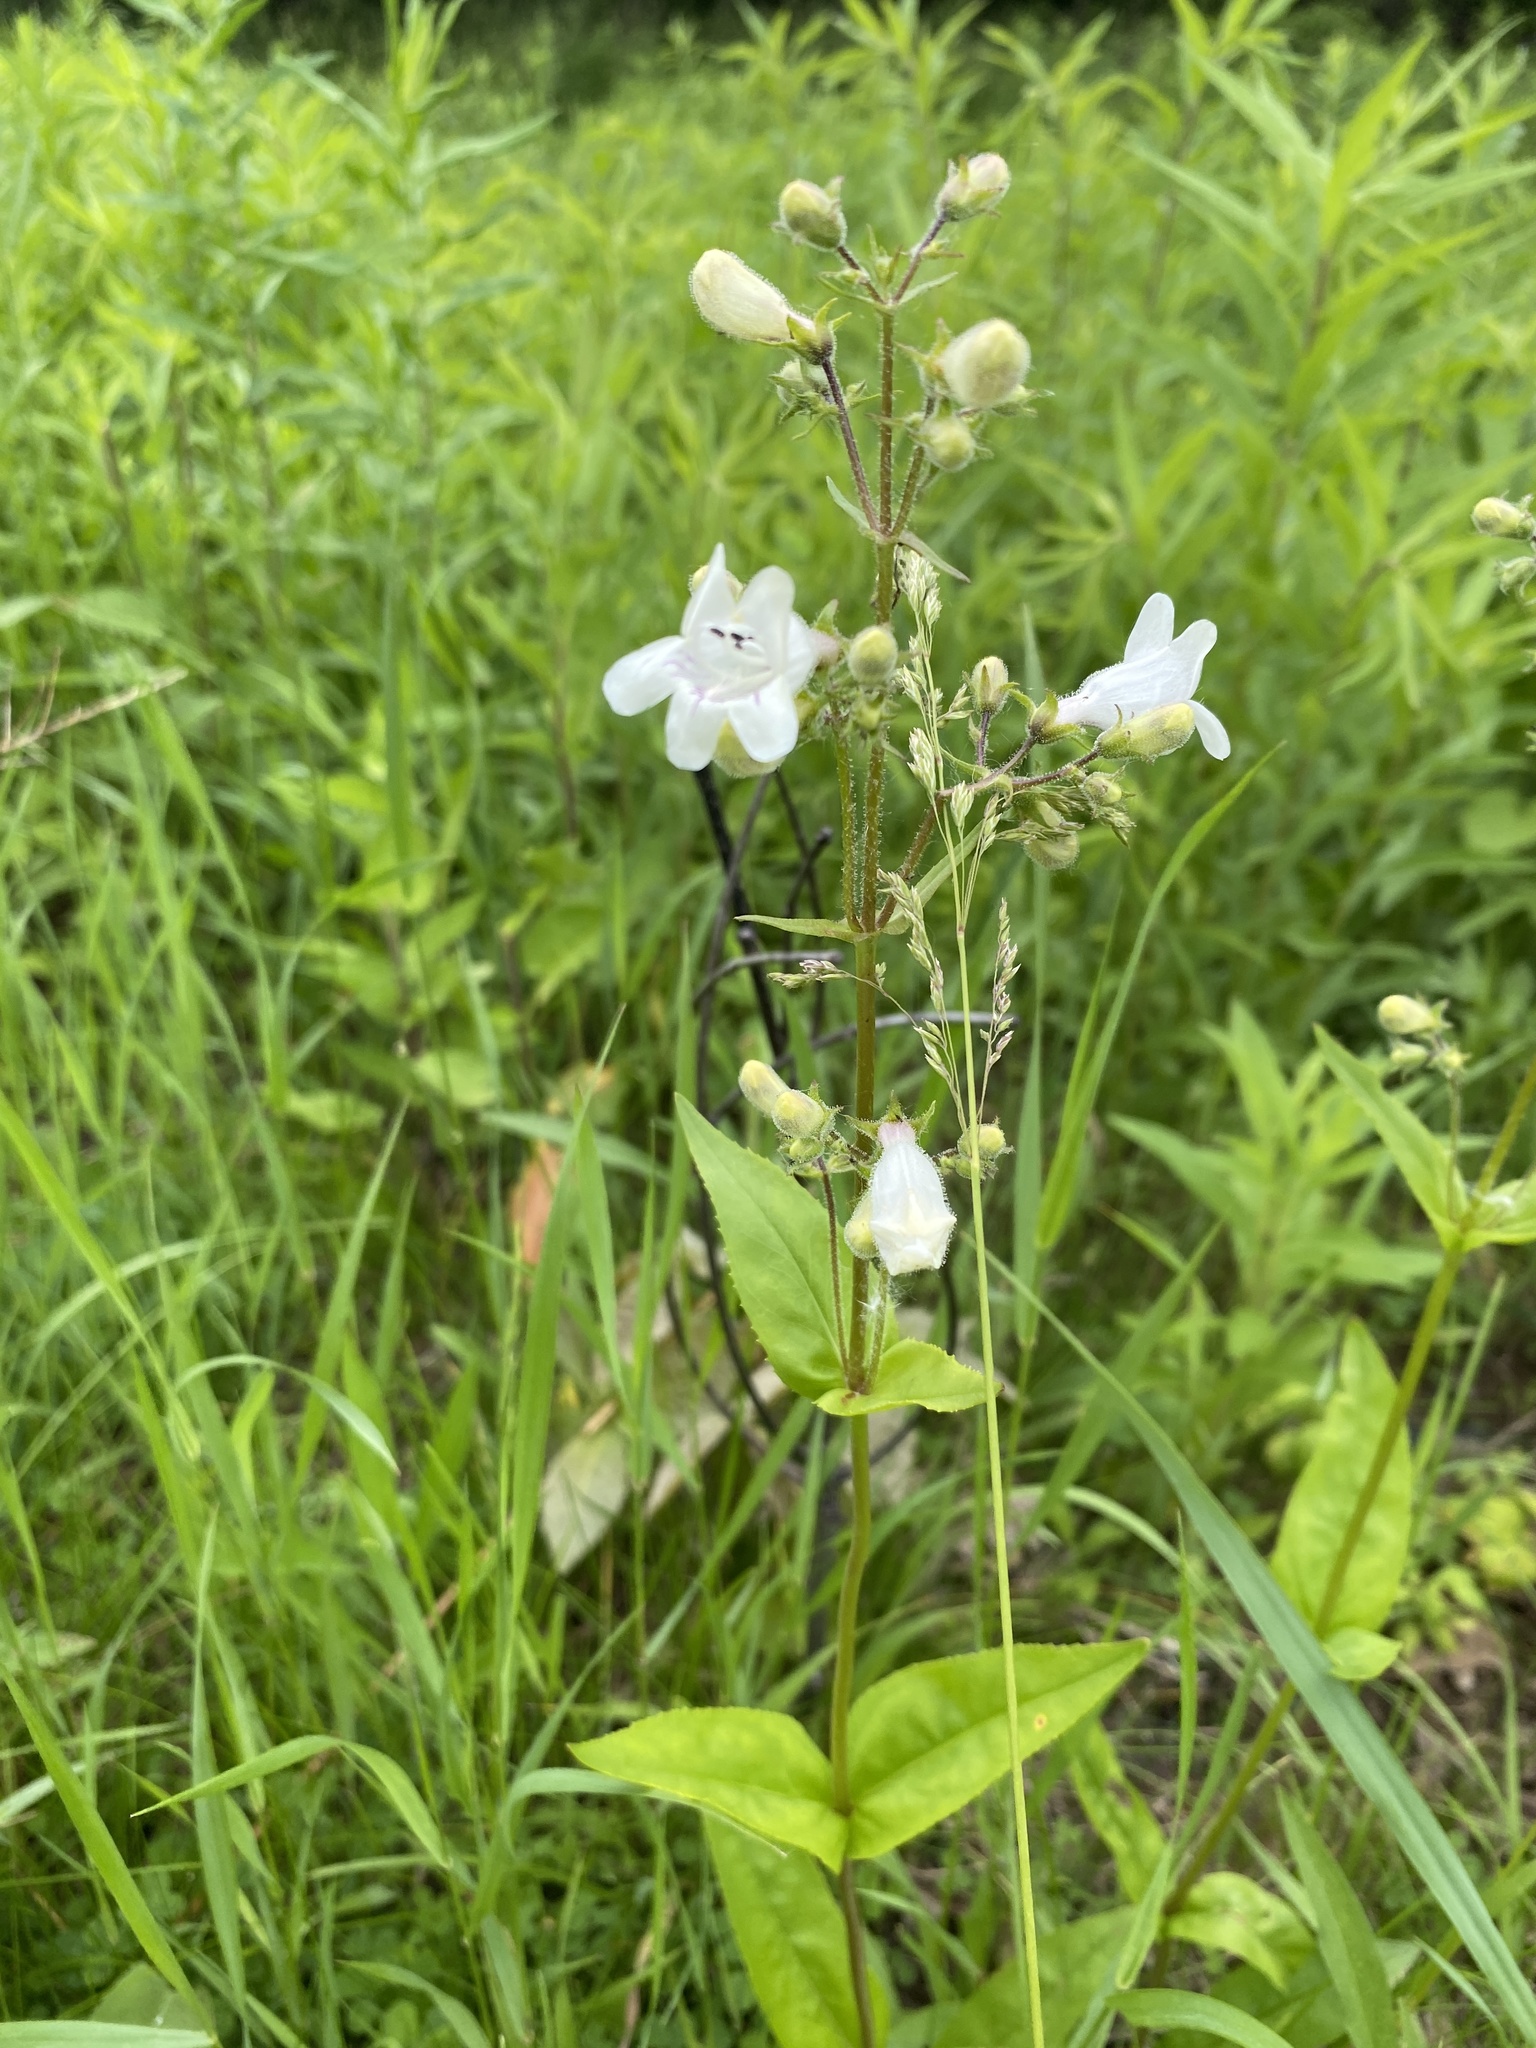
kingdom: Plantae
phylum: Tracheophyta
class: Magnoliopsida
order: Lamiales
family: Plantaginaceae
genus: Penstemon
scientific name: Penstemon digitalis
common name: Foxglove beardtongue
